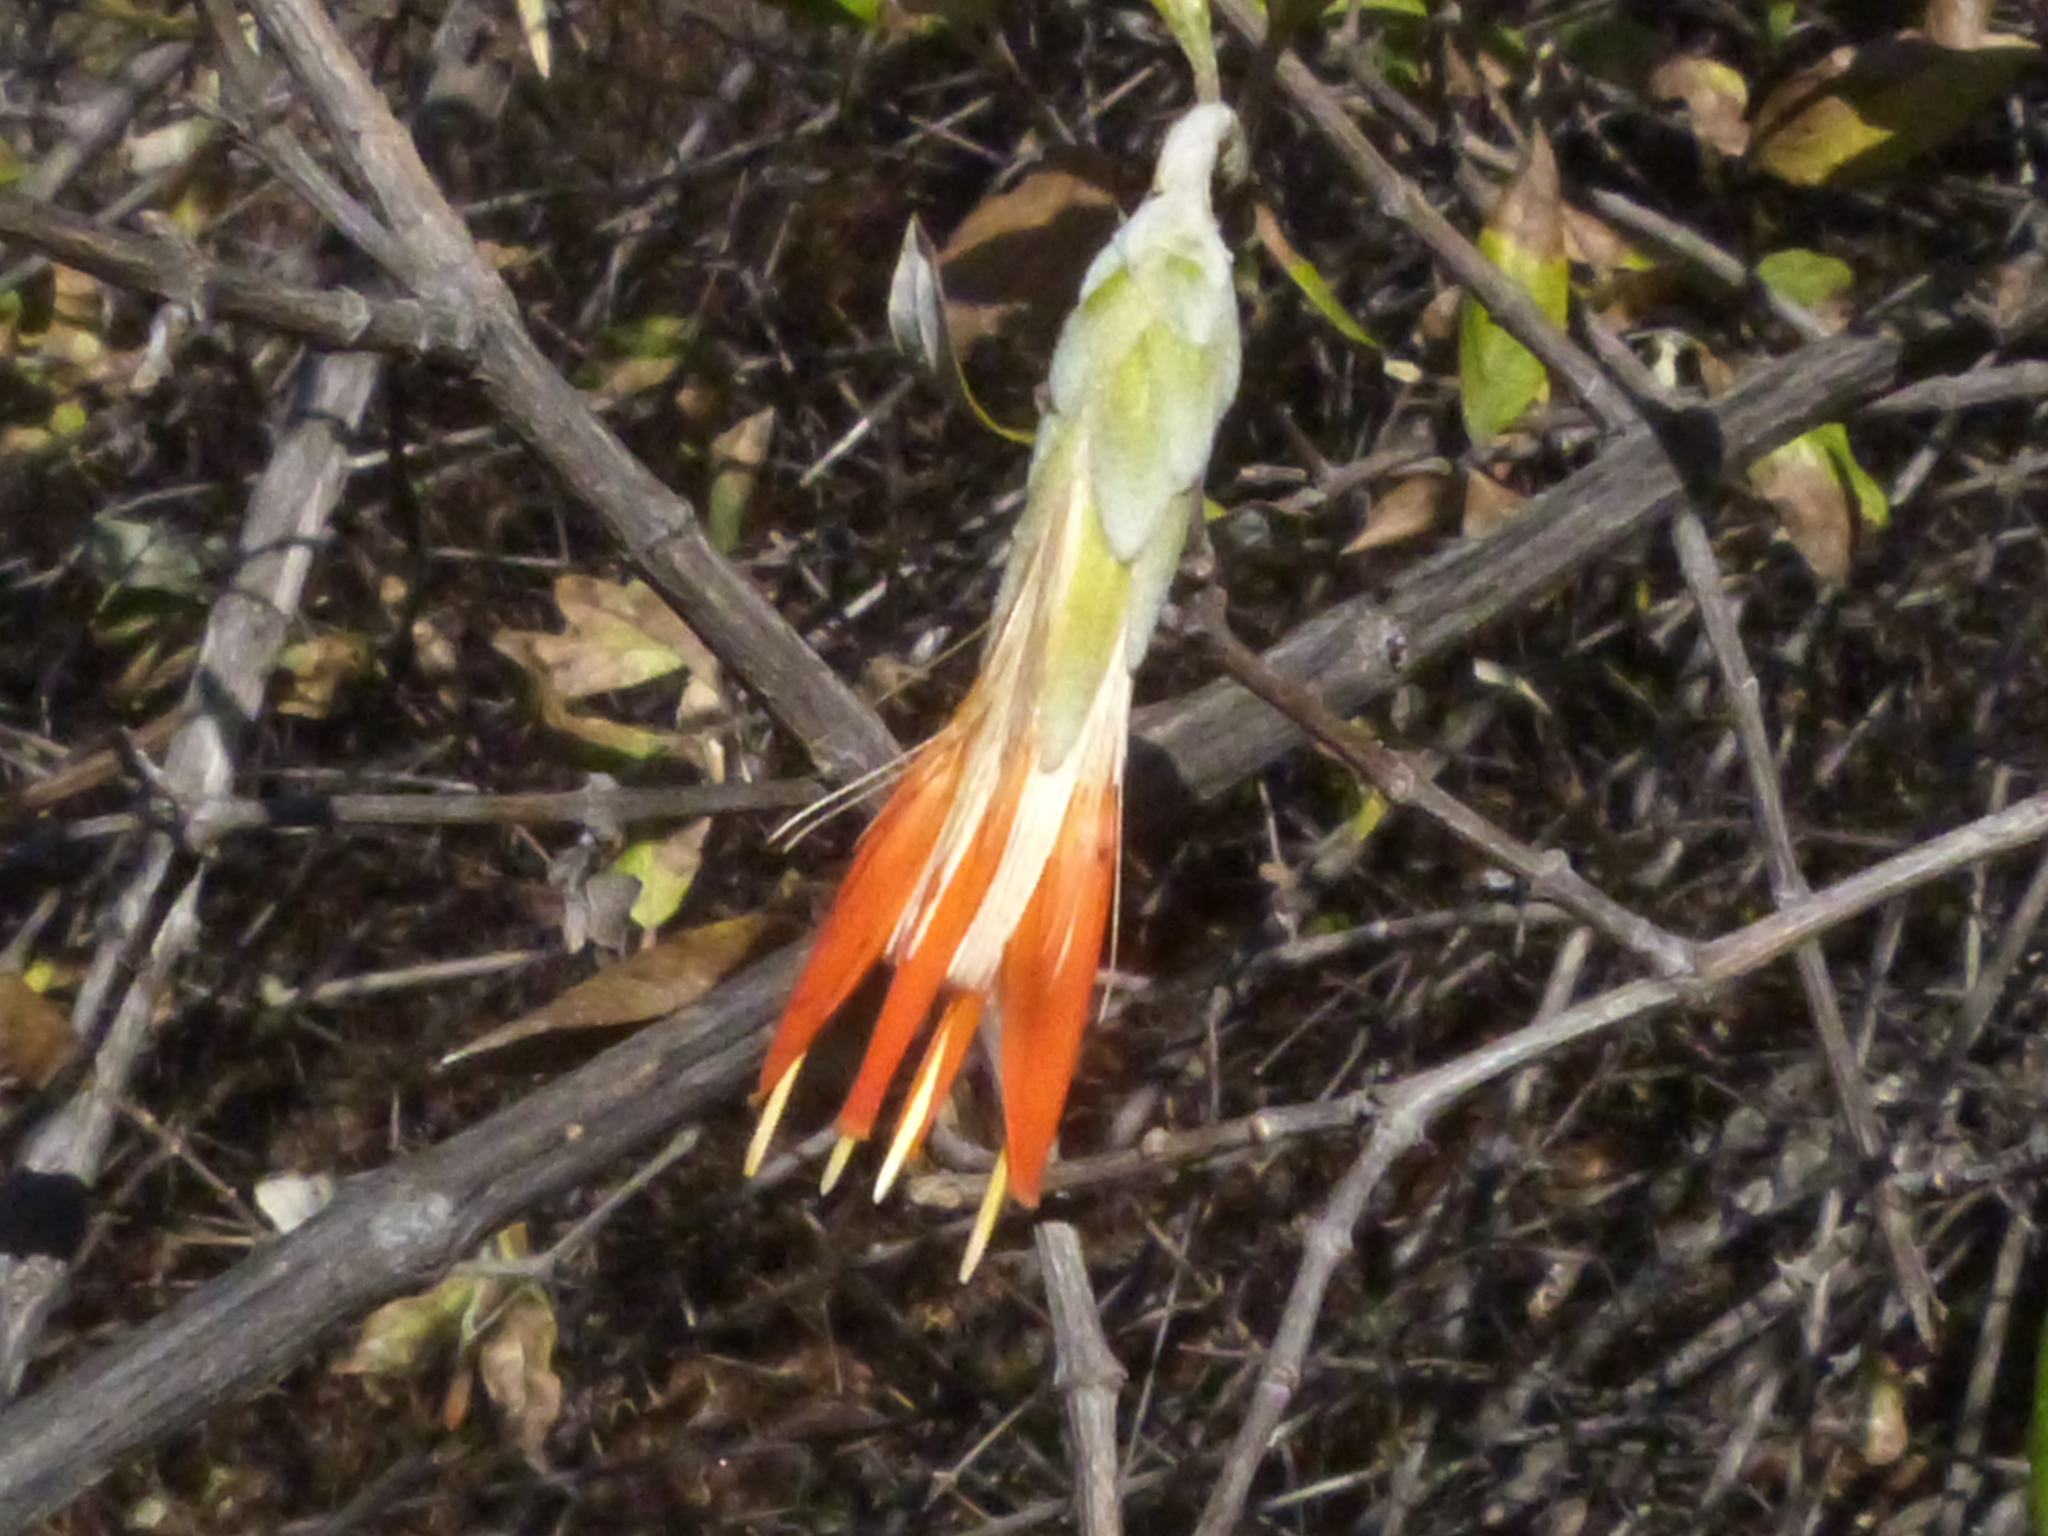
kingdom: Plantae
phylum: Tracheophyta
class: Magnoliopsida
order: Asterales
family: Asteraceae
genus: Hyaloseris
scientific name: Hyaloseris andrade-limae
